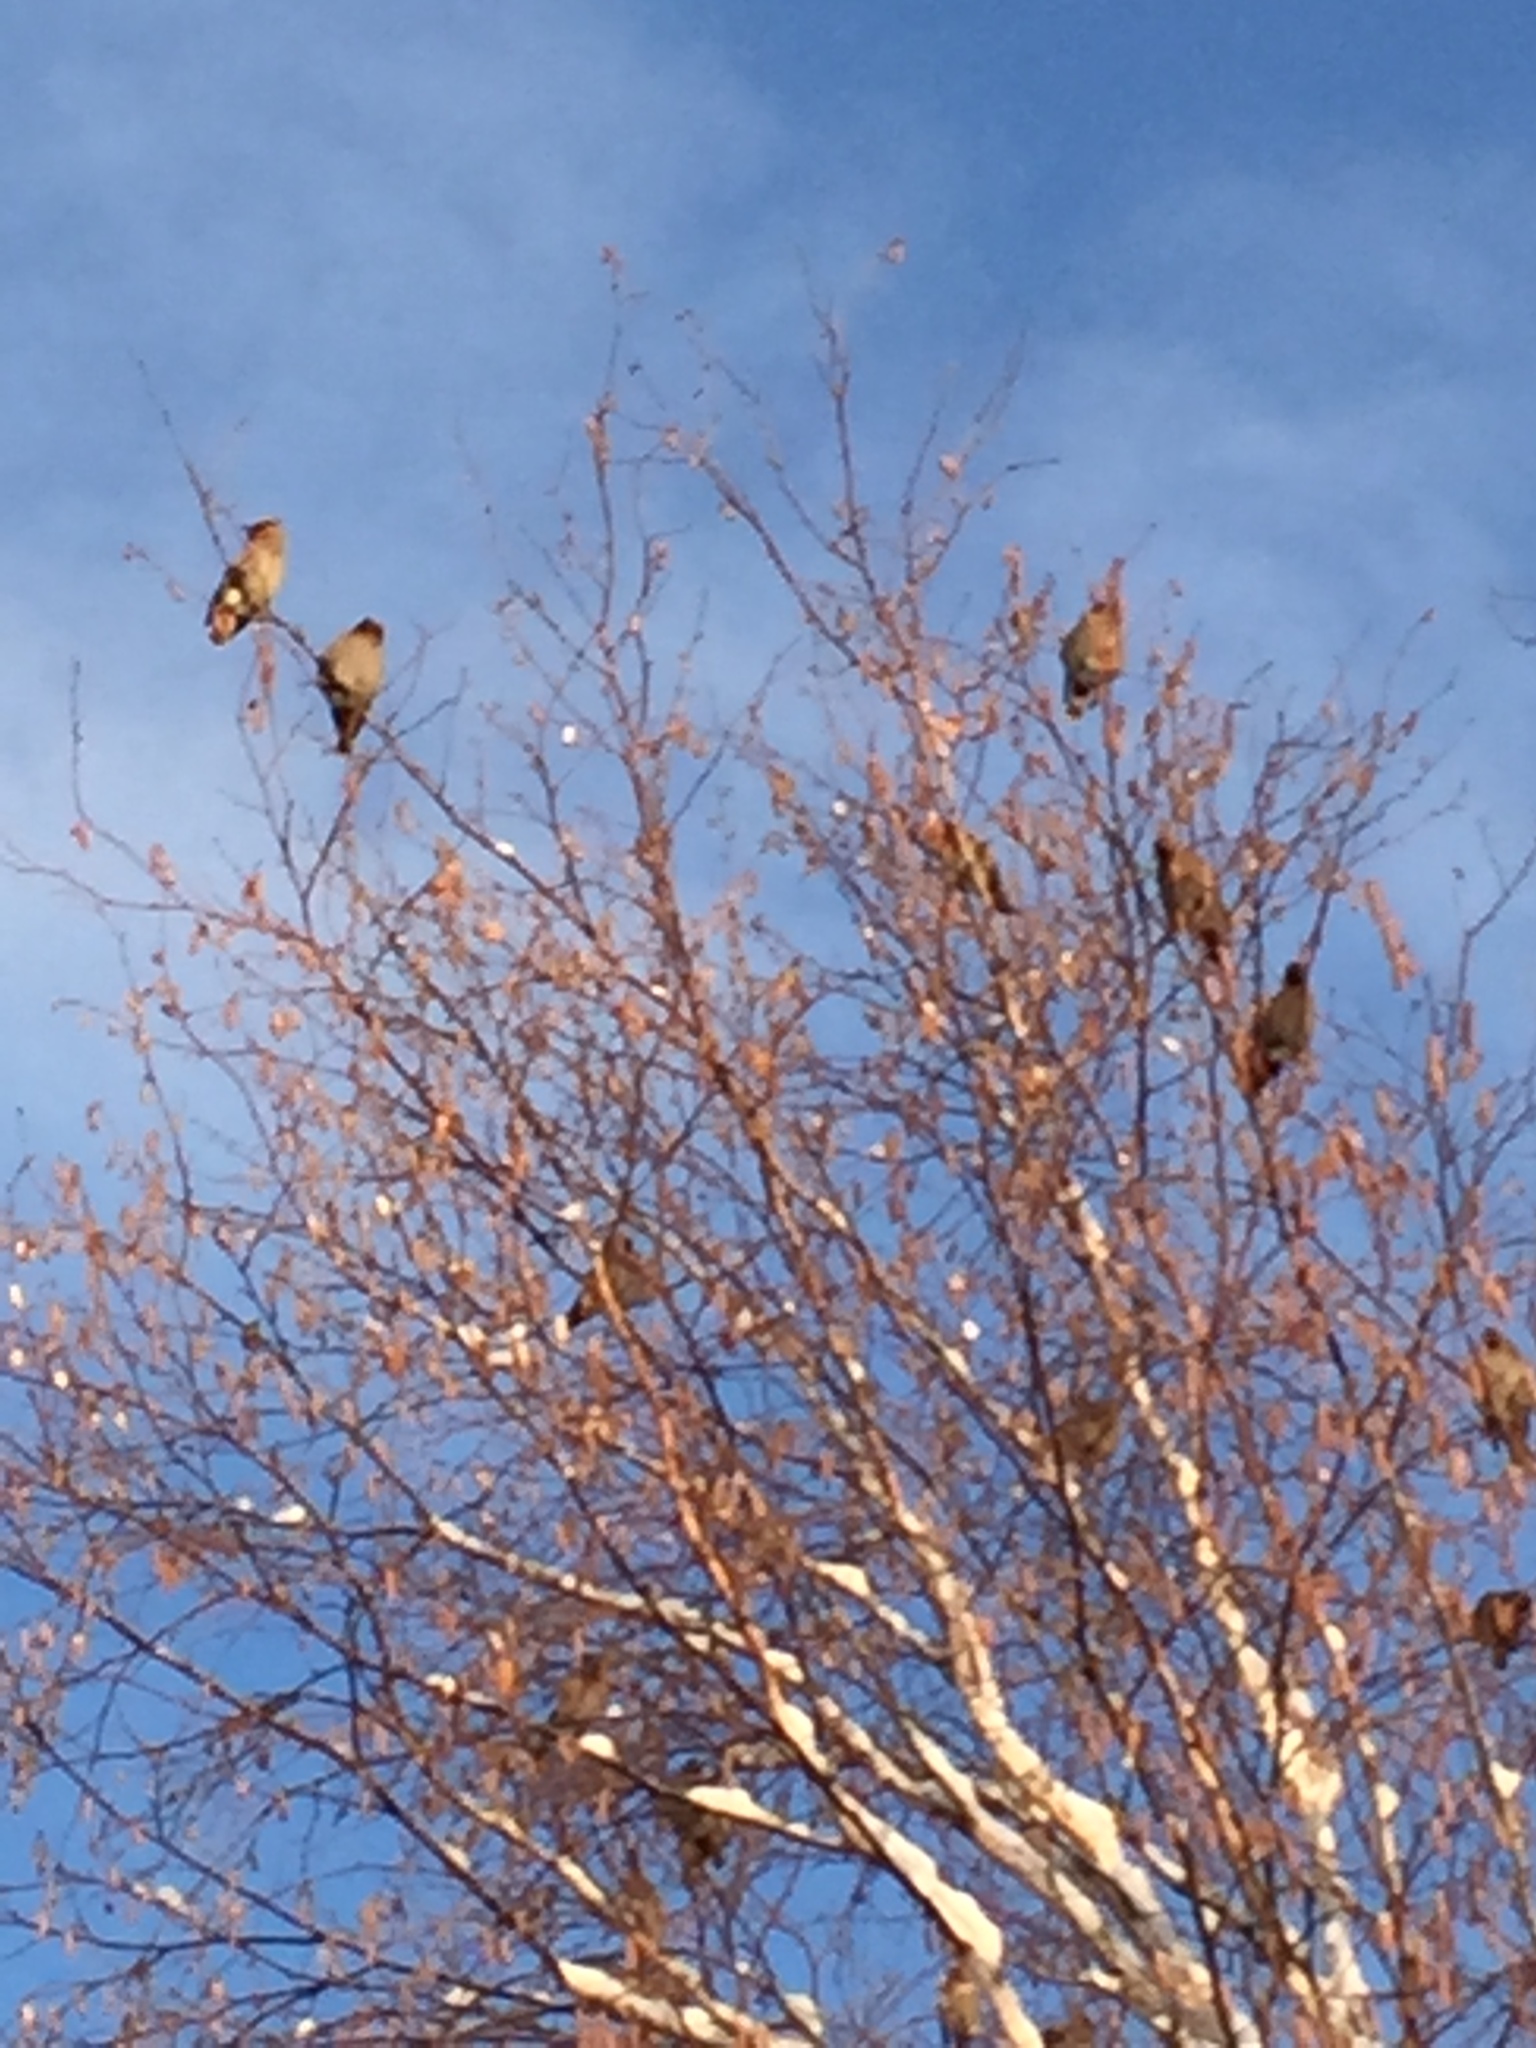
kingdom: Animalia
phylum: Chordata
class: Aves
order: Passeriformes
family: Bombycillidae
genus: Bombycilla
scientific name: Bombycilla garrulus
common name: Bohemian waxwing
